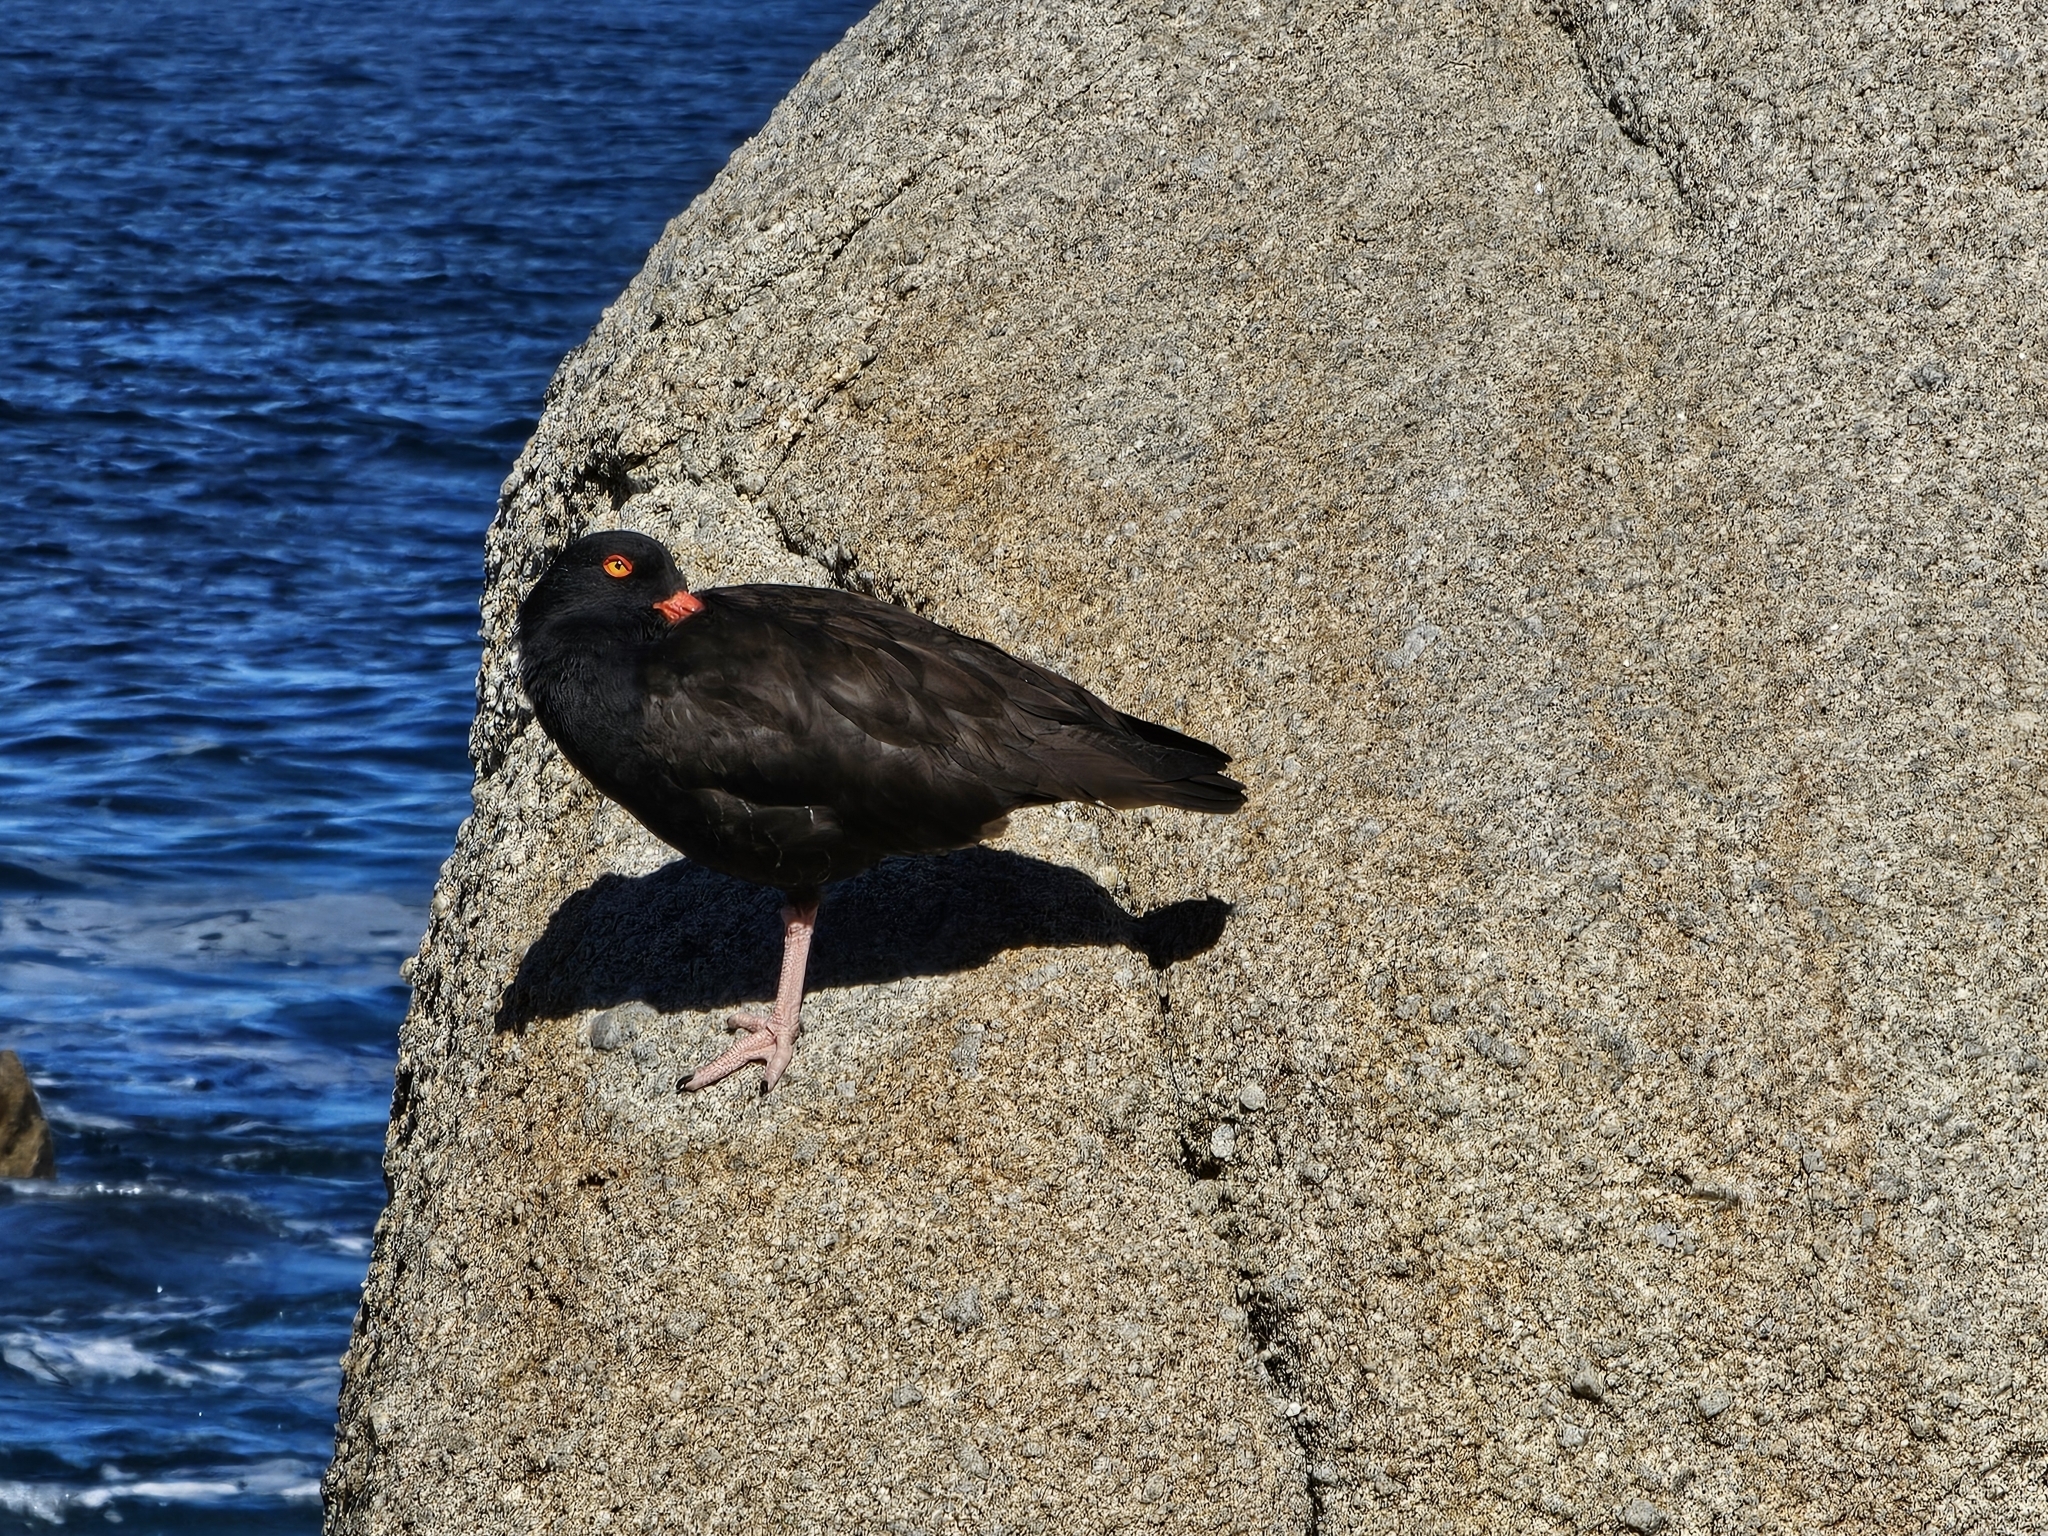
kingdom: Animalia
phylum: Chordata
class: Aves
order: Charadriiformes
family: Haematopodidae
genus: Haematopus
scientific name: Haematopus bachmani
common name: Black oystercatcher
